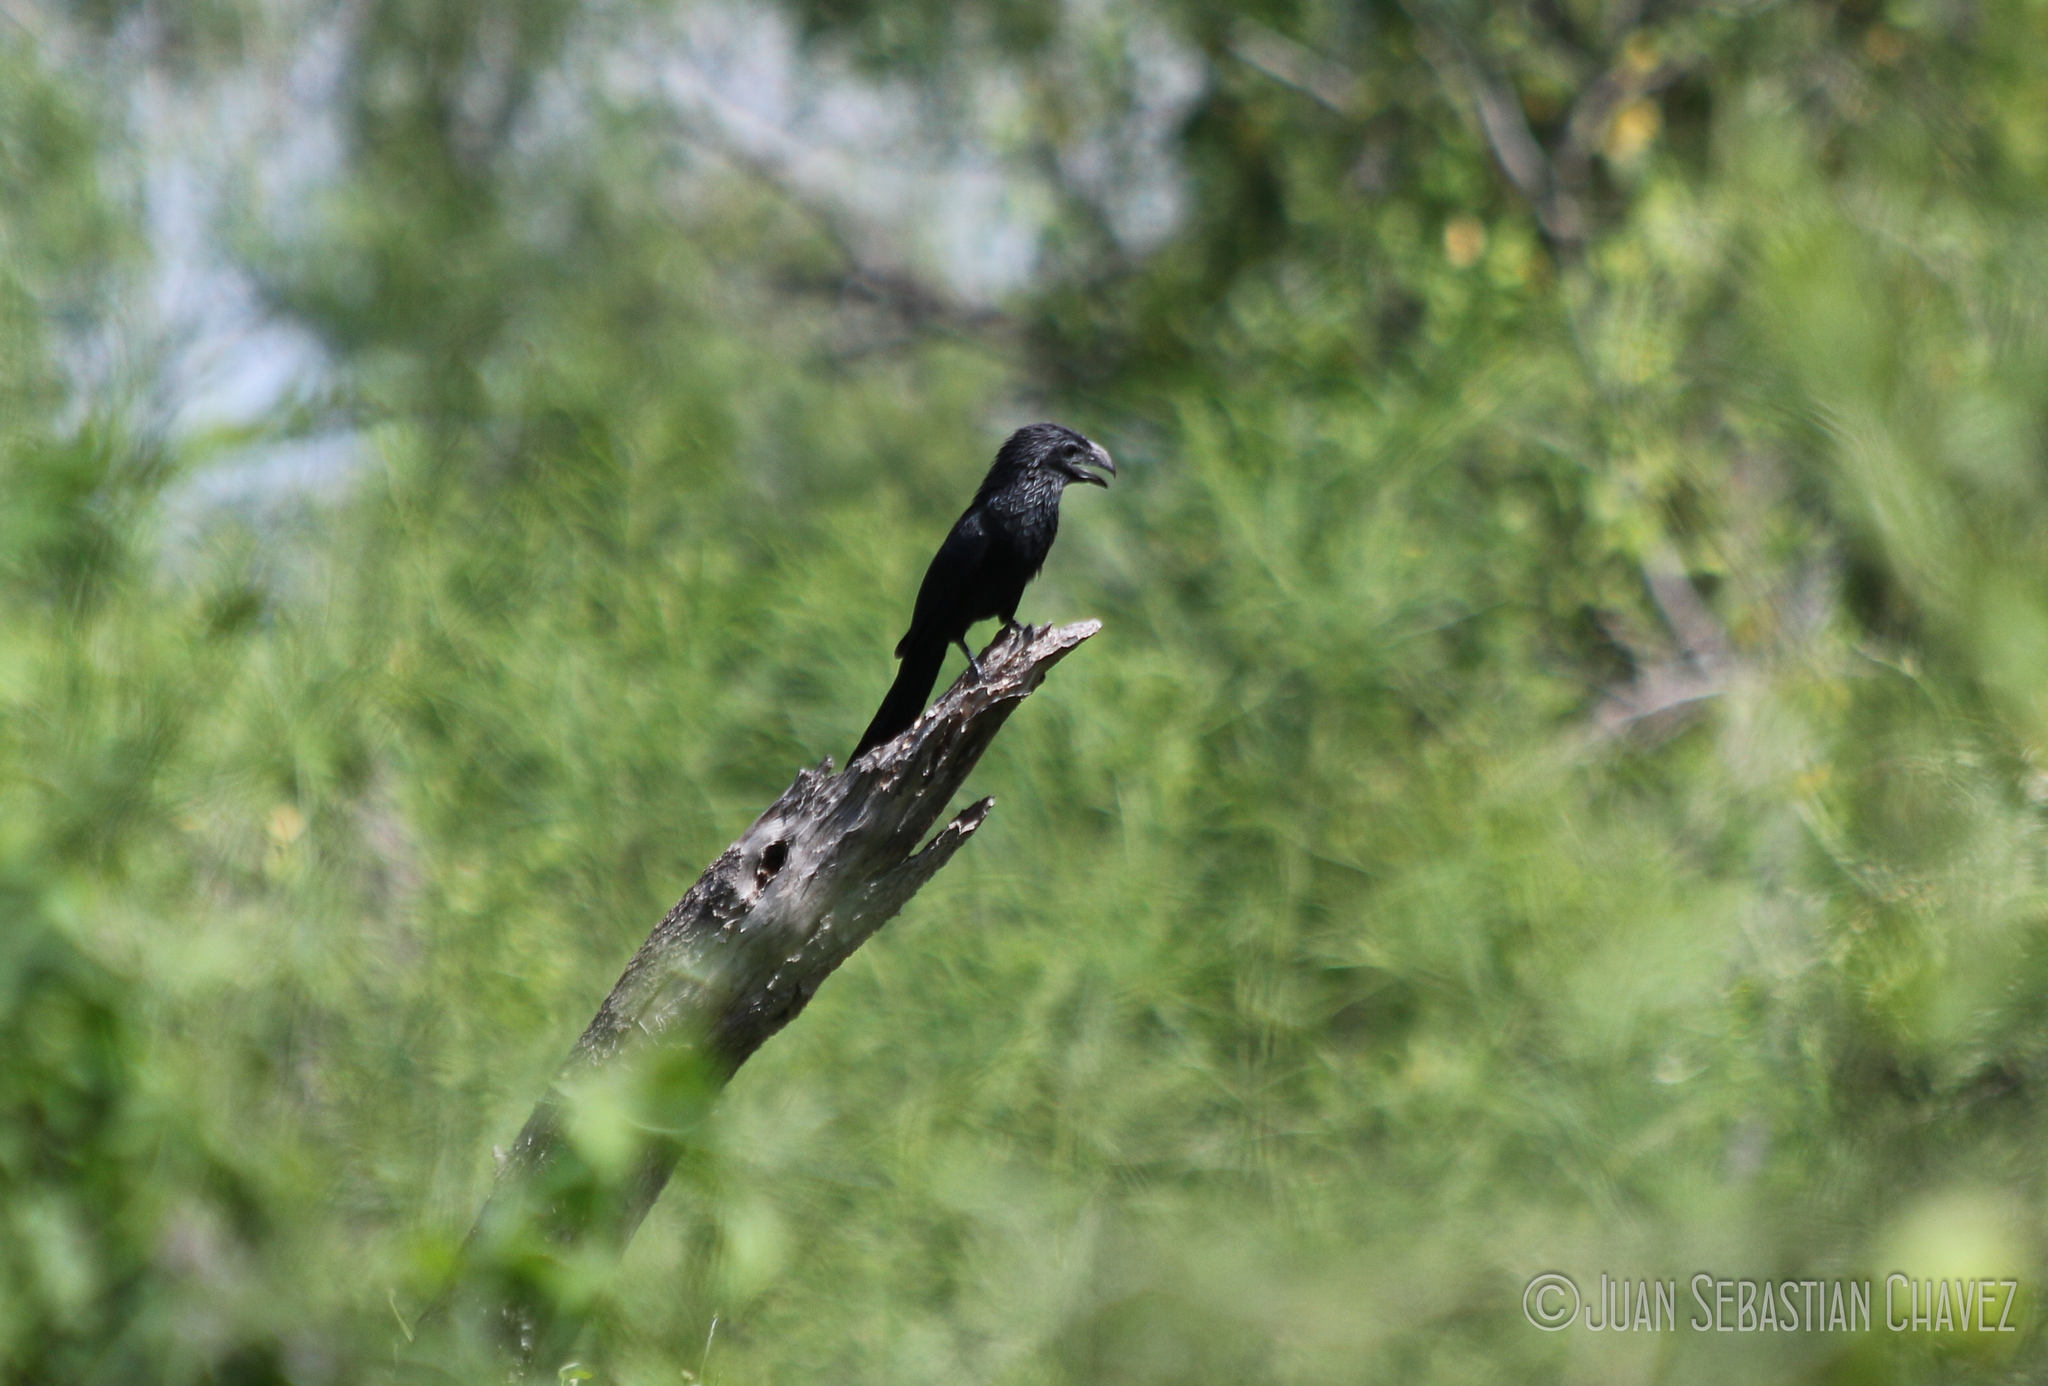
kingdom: Animalia
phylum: Chordata
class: Aves
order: Cuculiformes
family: Cuculidae
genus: Crotophaga
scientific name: Crotophaga sulcirostris
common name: Groove-billed ani
